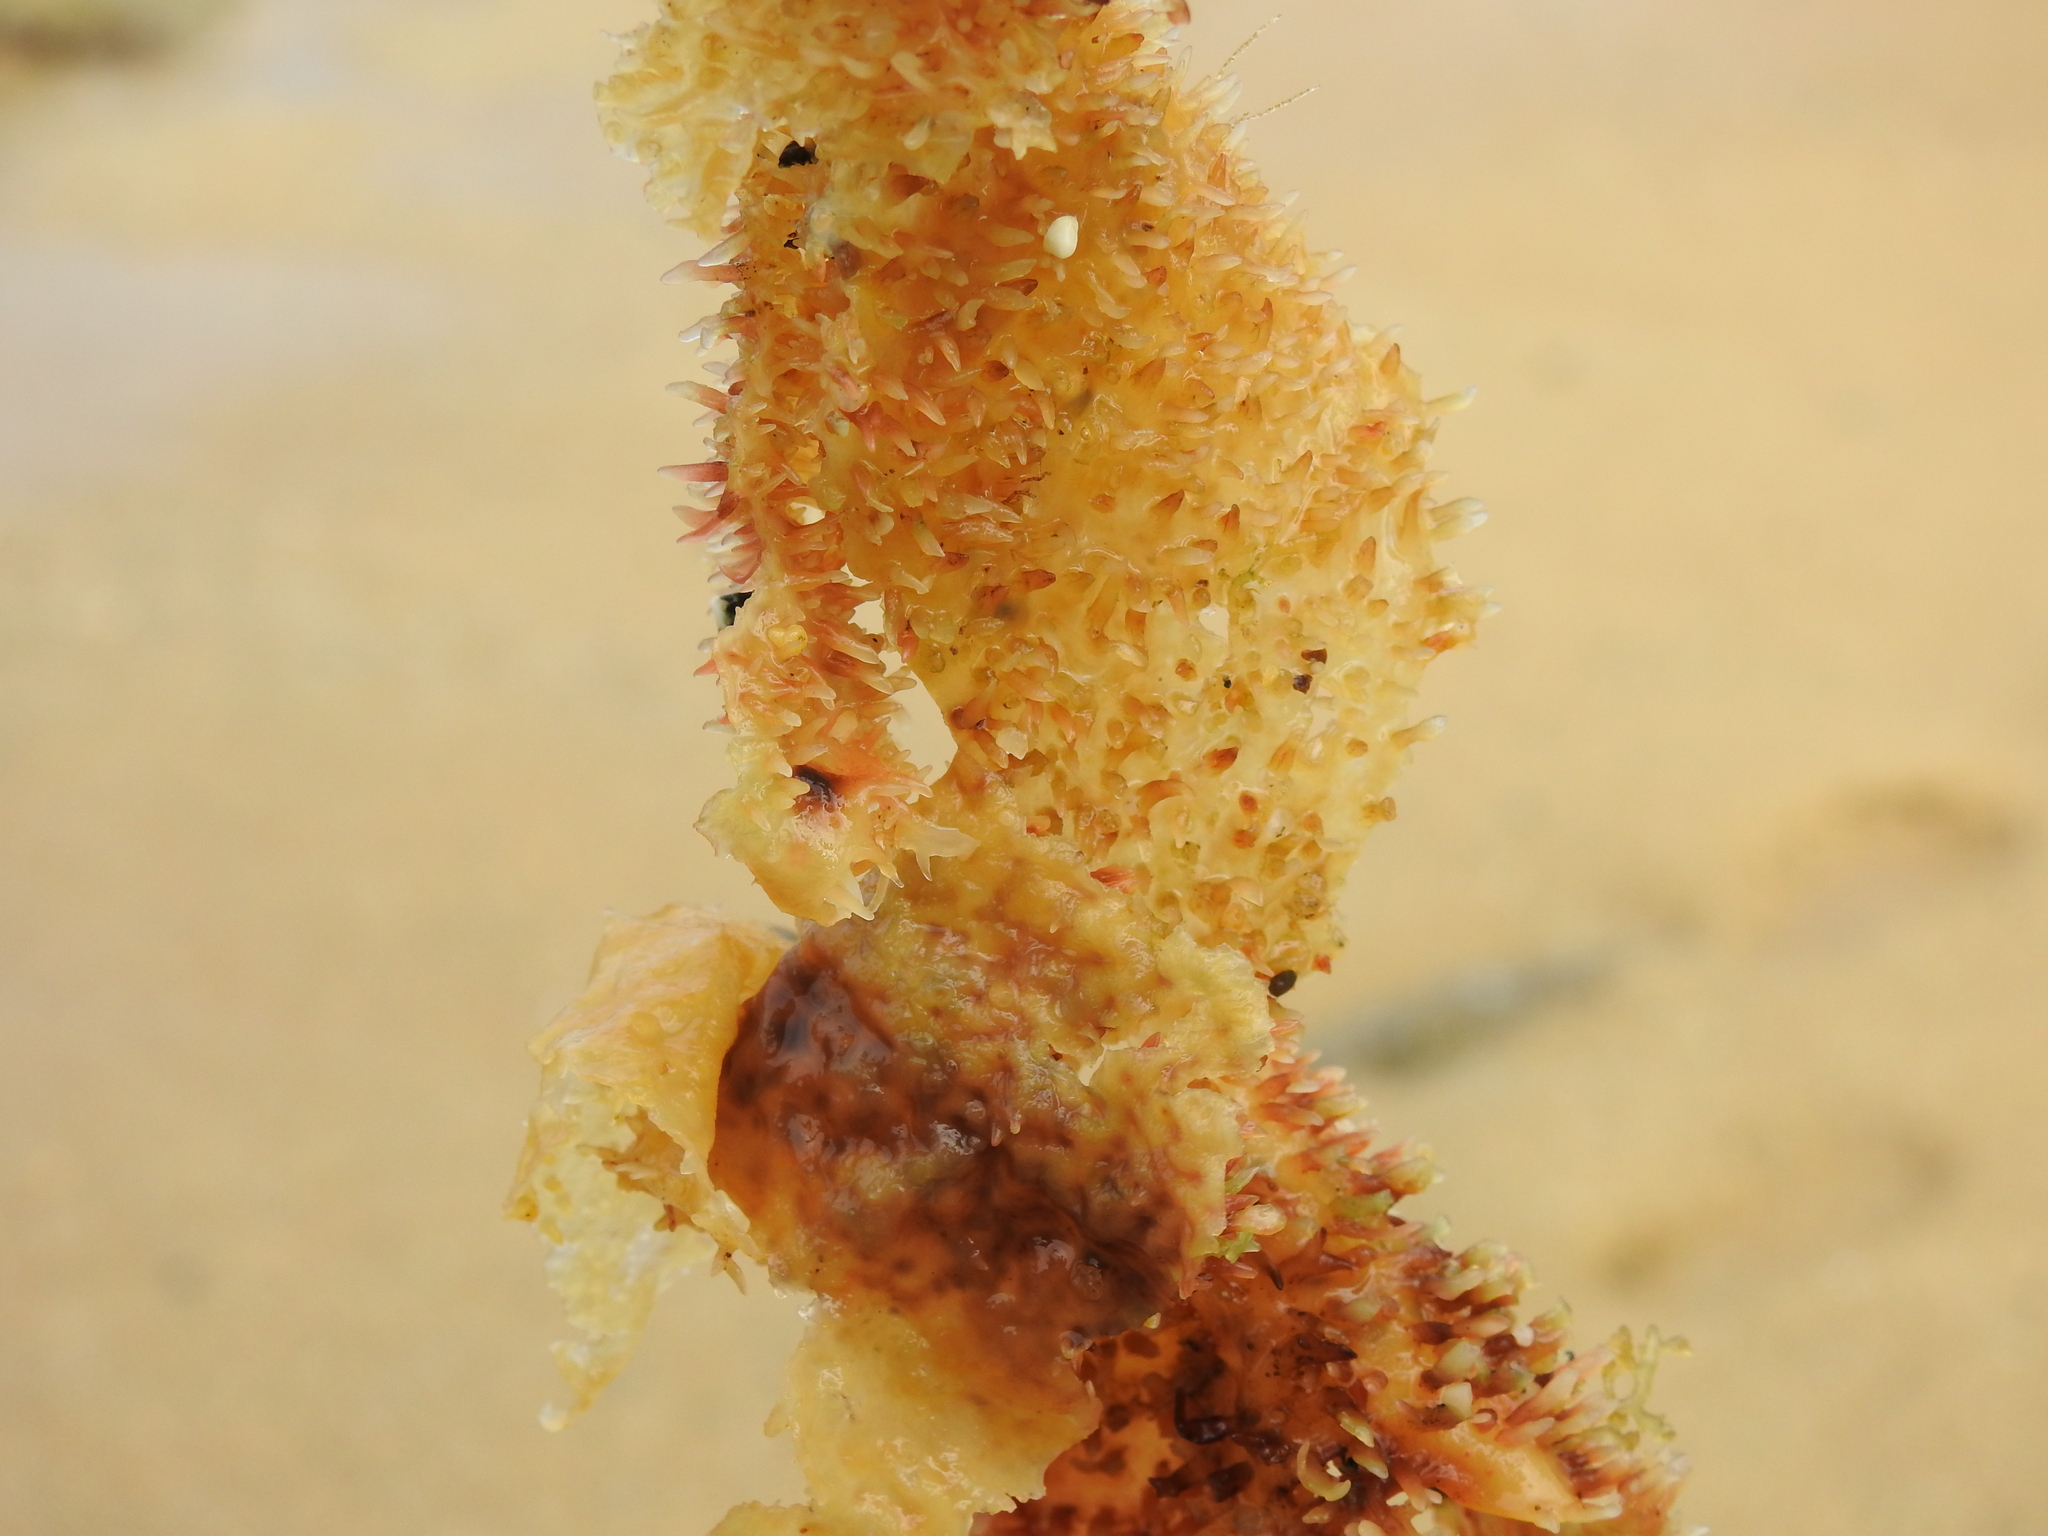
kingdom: Plantae
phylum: Rhodophyta
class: Florideophyceae
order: Gigartinales
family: Gigartinaceae
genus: Chondracanthus
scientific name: Chondracanthus exasperatus
